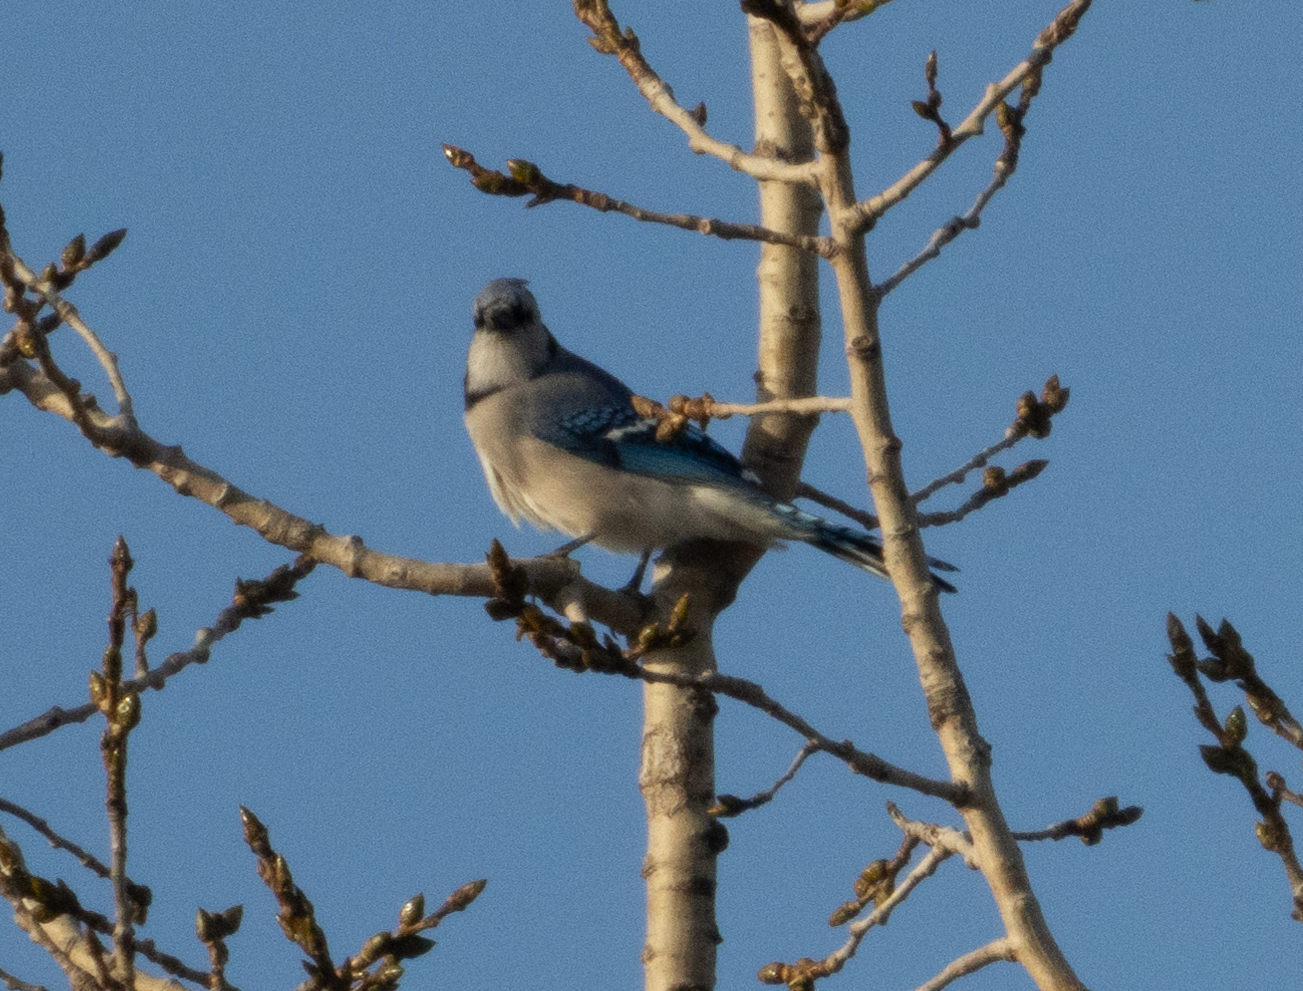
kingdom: Animalia
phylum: Chordata
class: Aves
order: Passeriformes
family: Corvidae
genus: Cyanocitta
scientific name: Cyanocitta cristata
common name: Blue jay
